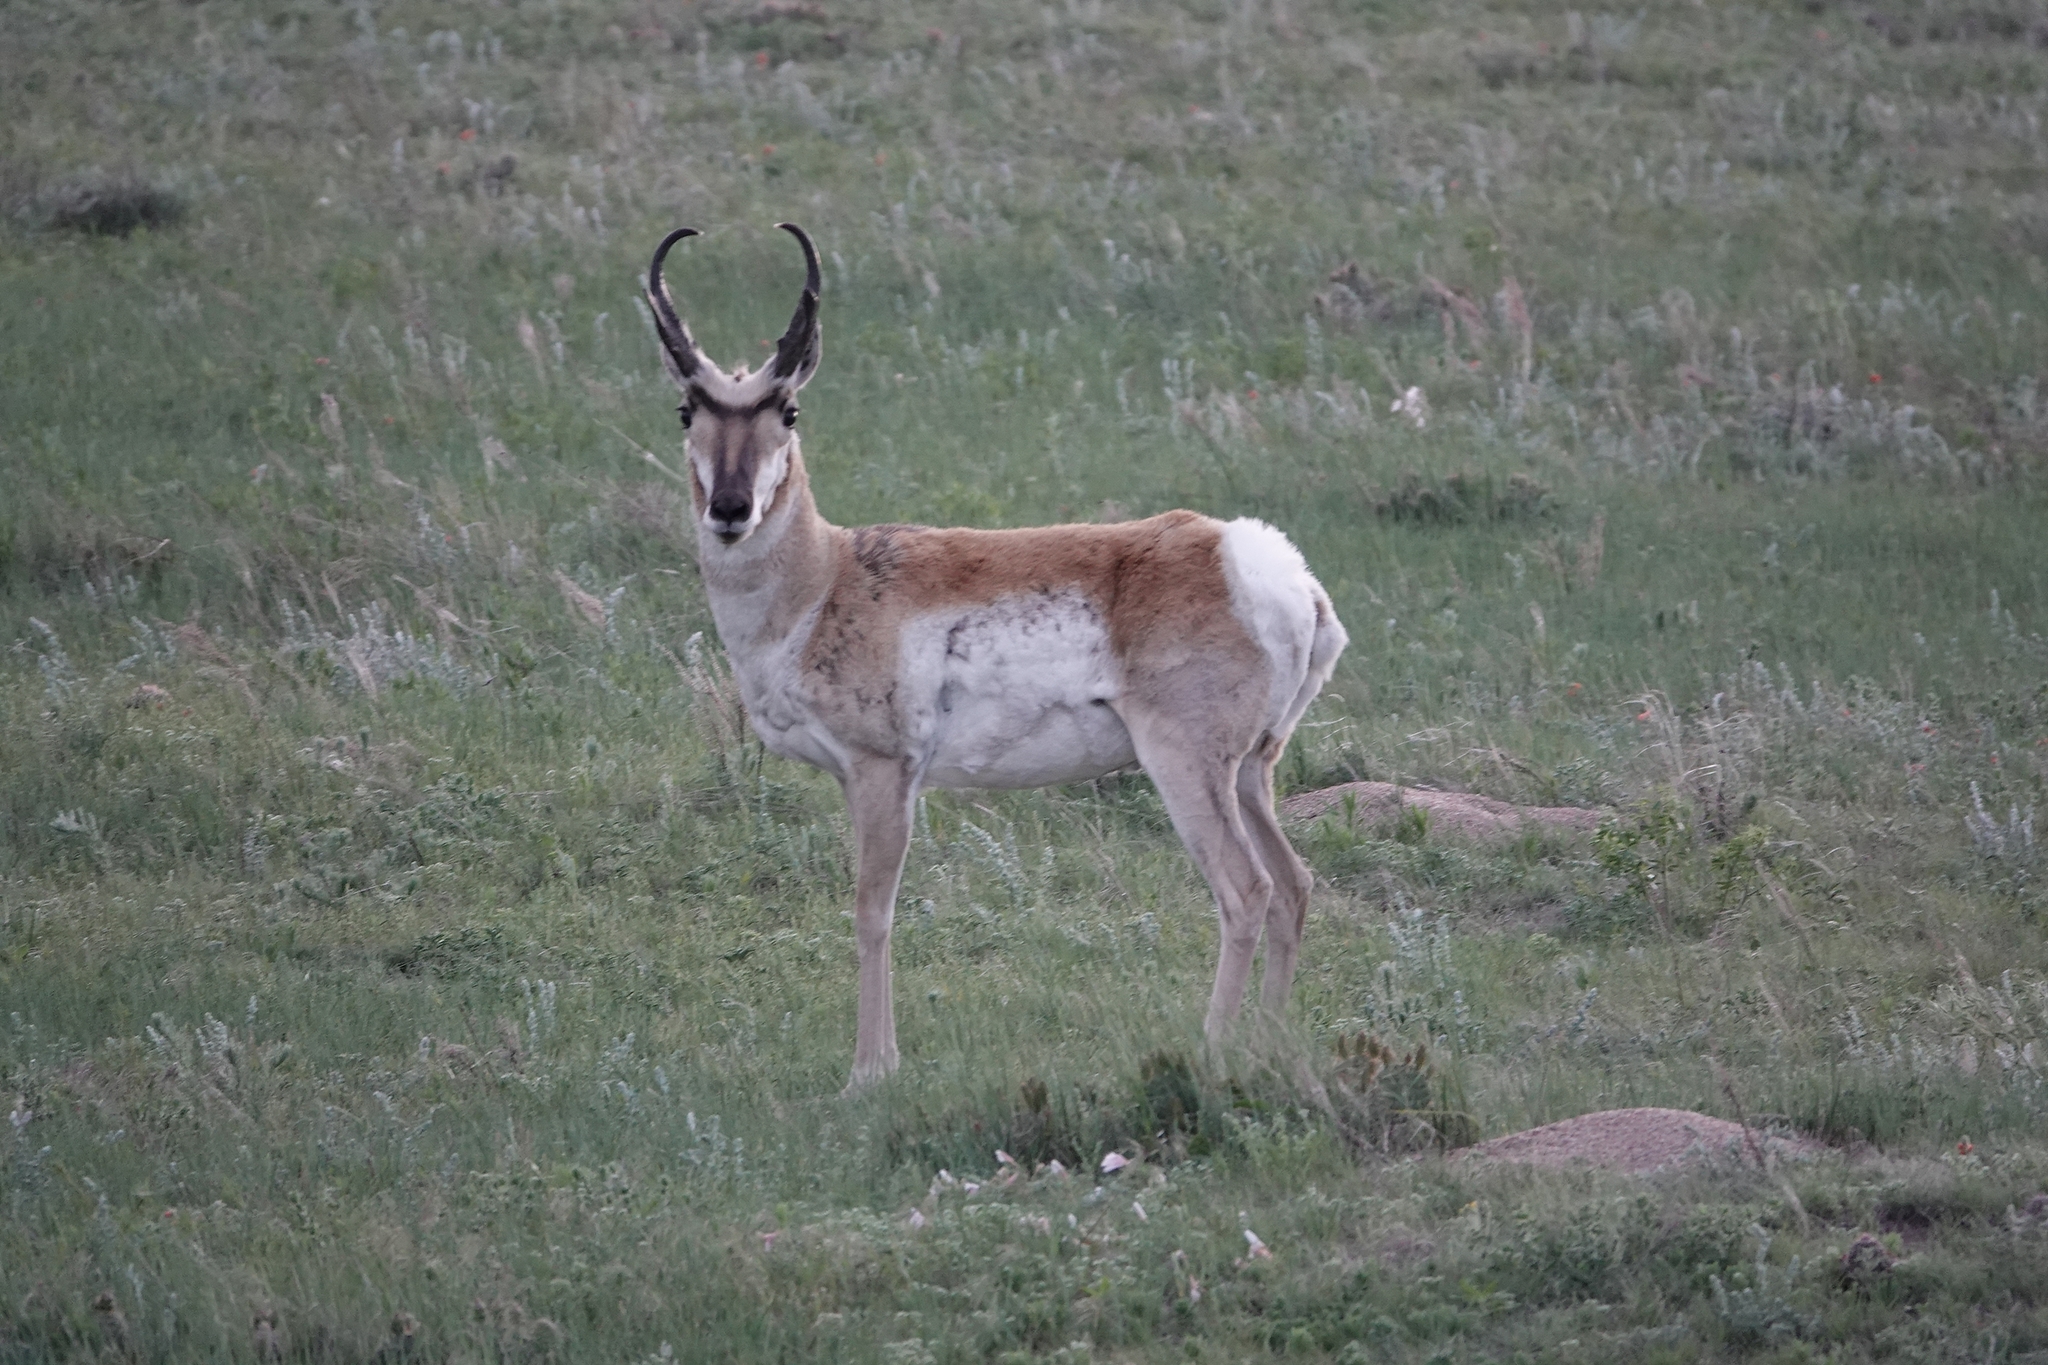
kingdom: Animalia
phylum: Chordata
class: Mammalia
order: Artiodactyla
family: Antilocapridae
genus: Antilocapra
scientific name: Antilocapra americana
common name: Pronghorn
